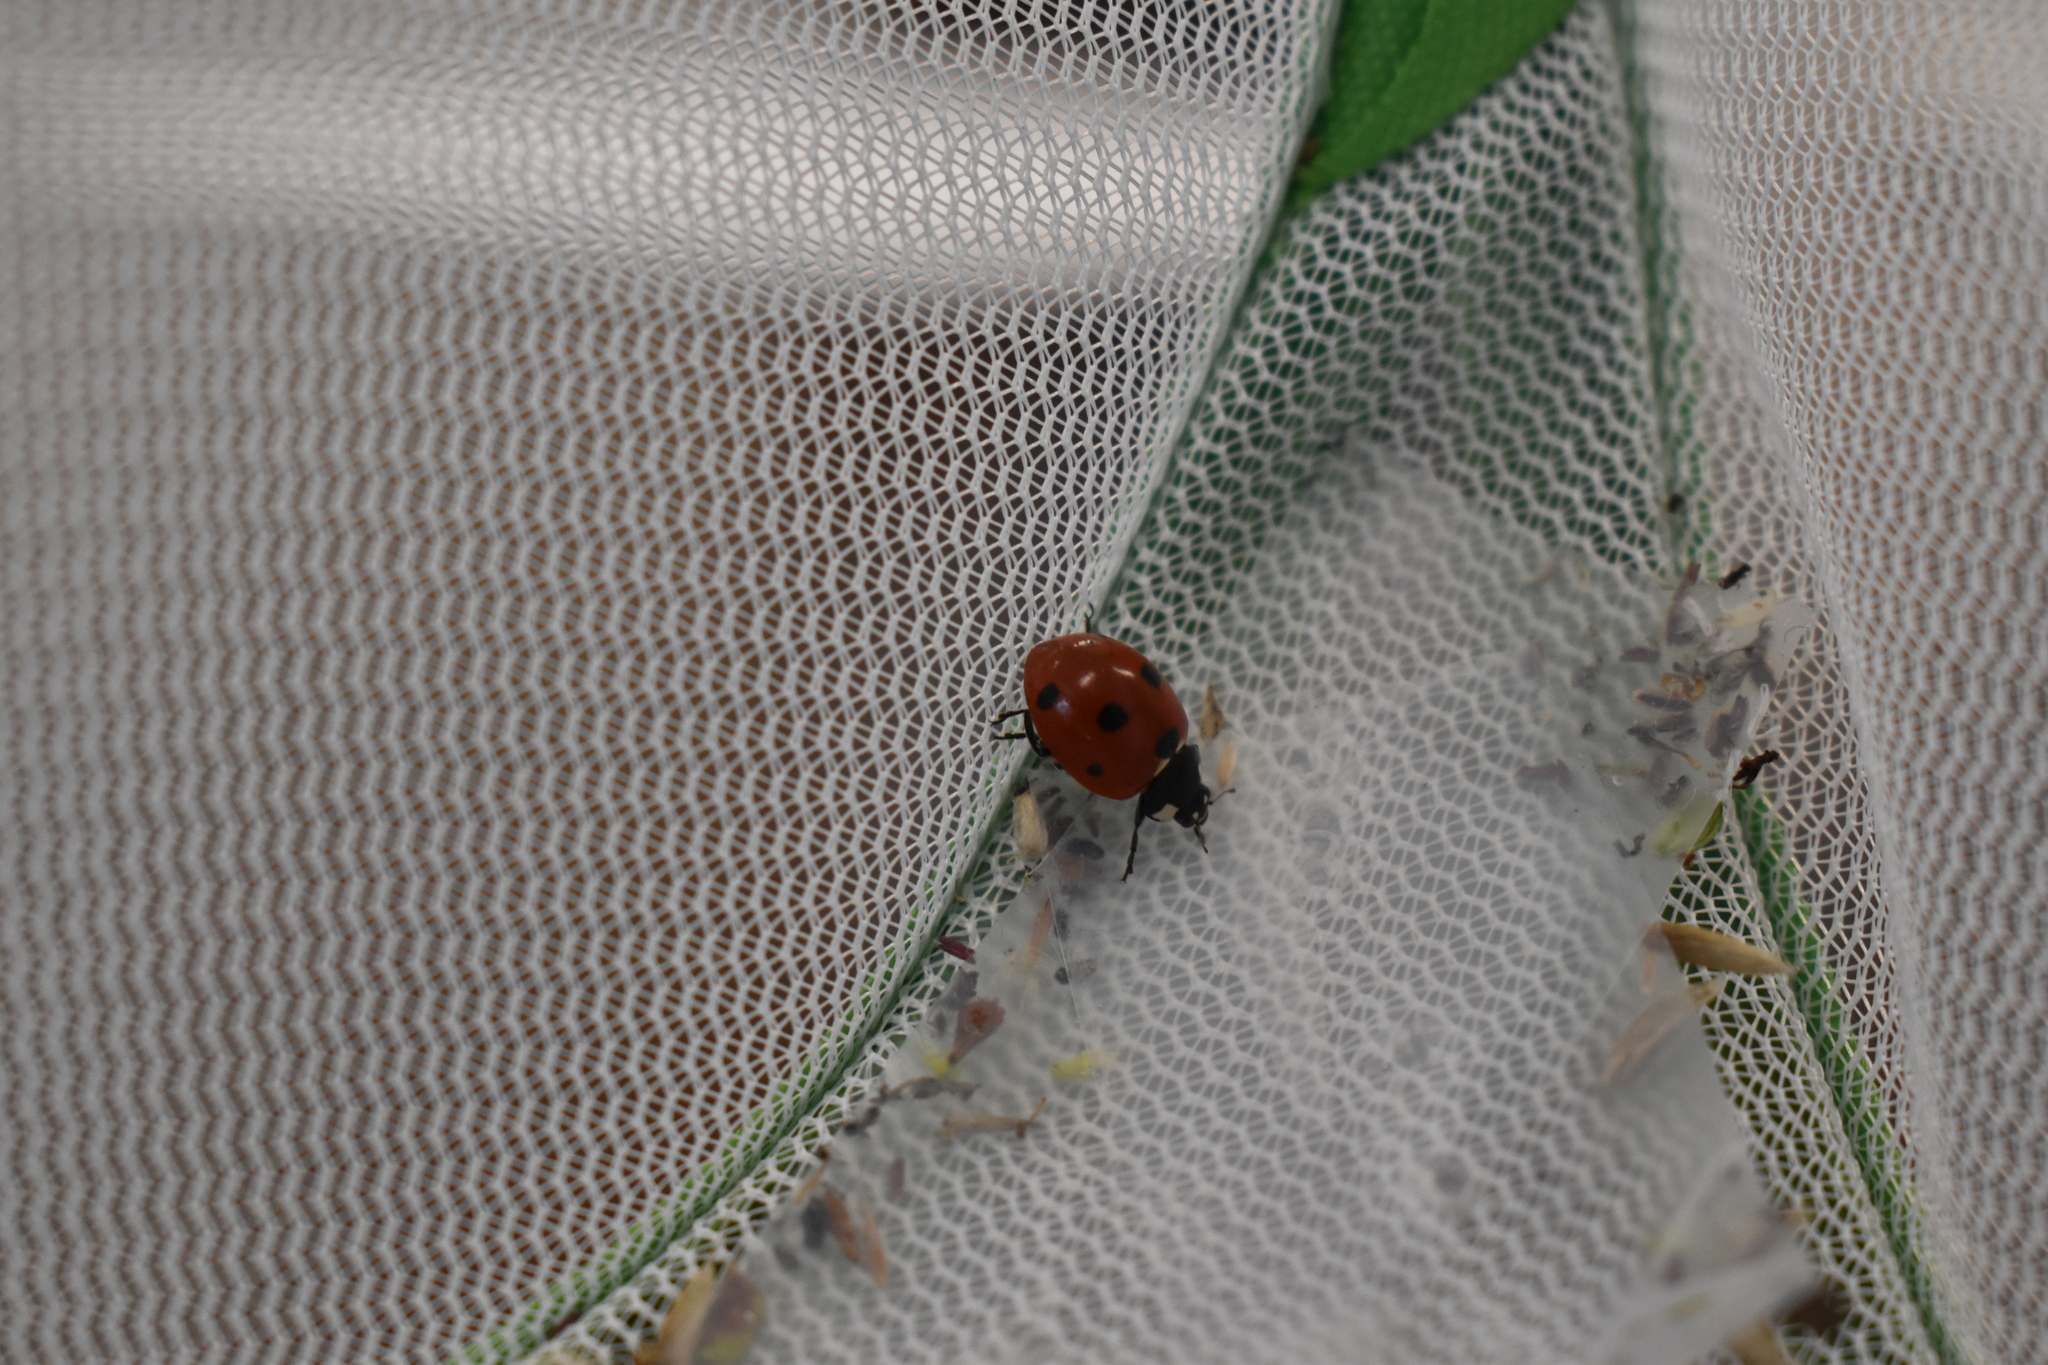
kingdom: Animalia
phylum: Arthropoda
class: Insecta
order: Coleoptera
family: Coccinellidae
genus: Coccinella
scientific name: Coccinella septempunctata
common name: Sevenspotted lady beetle
